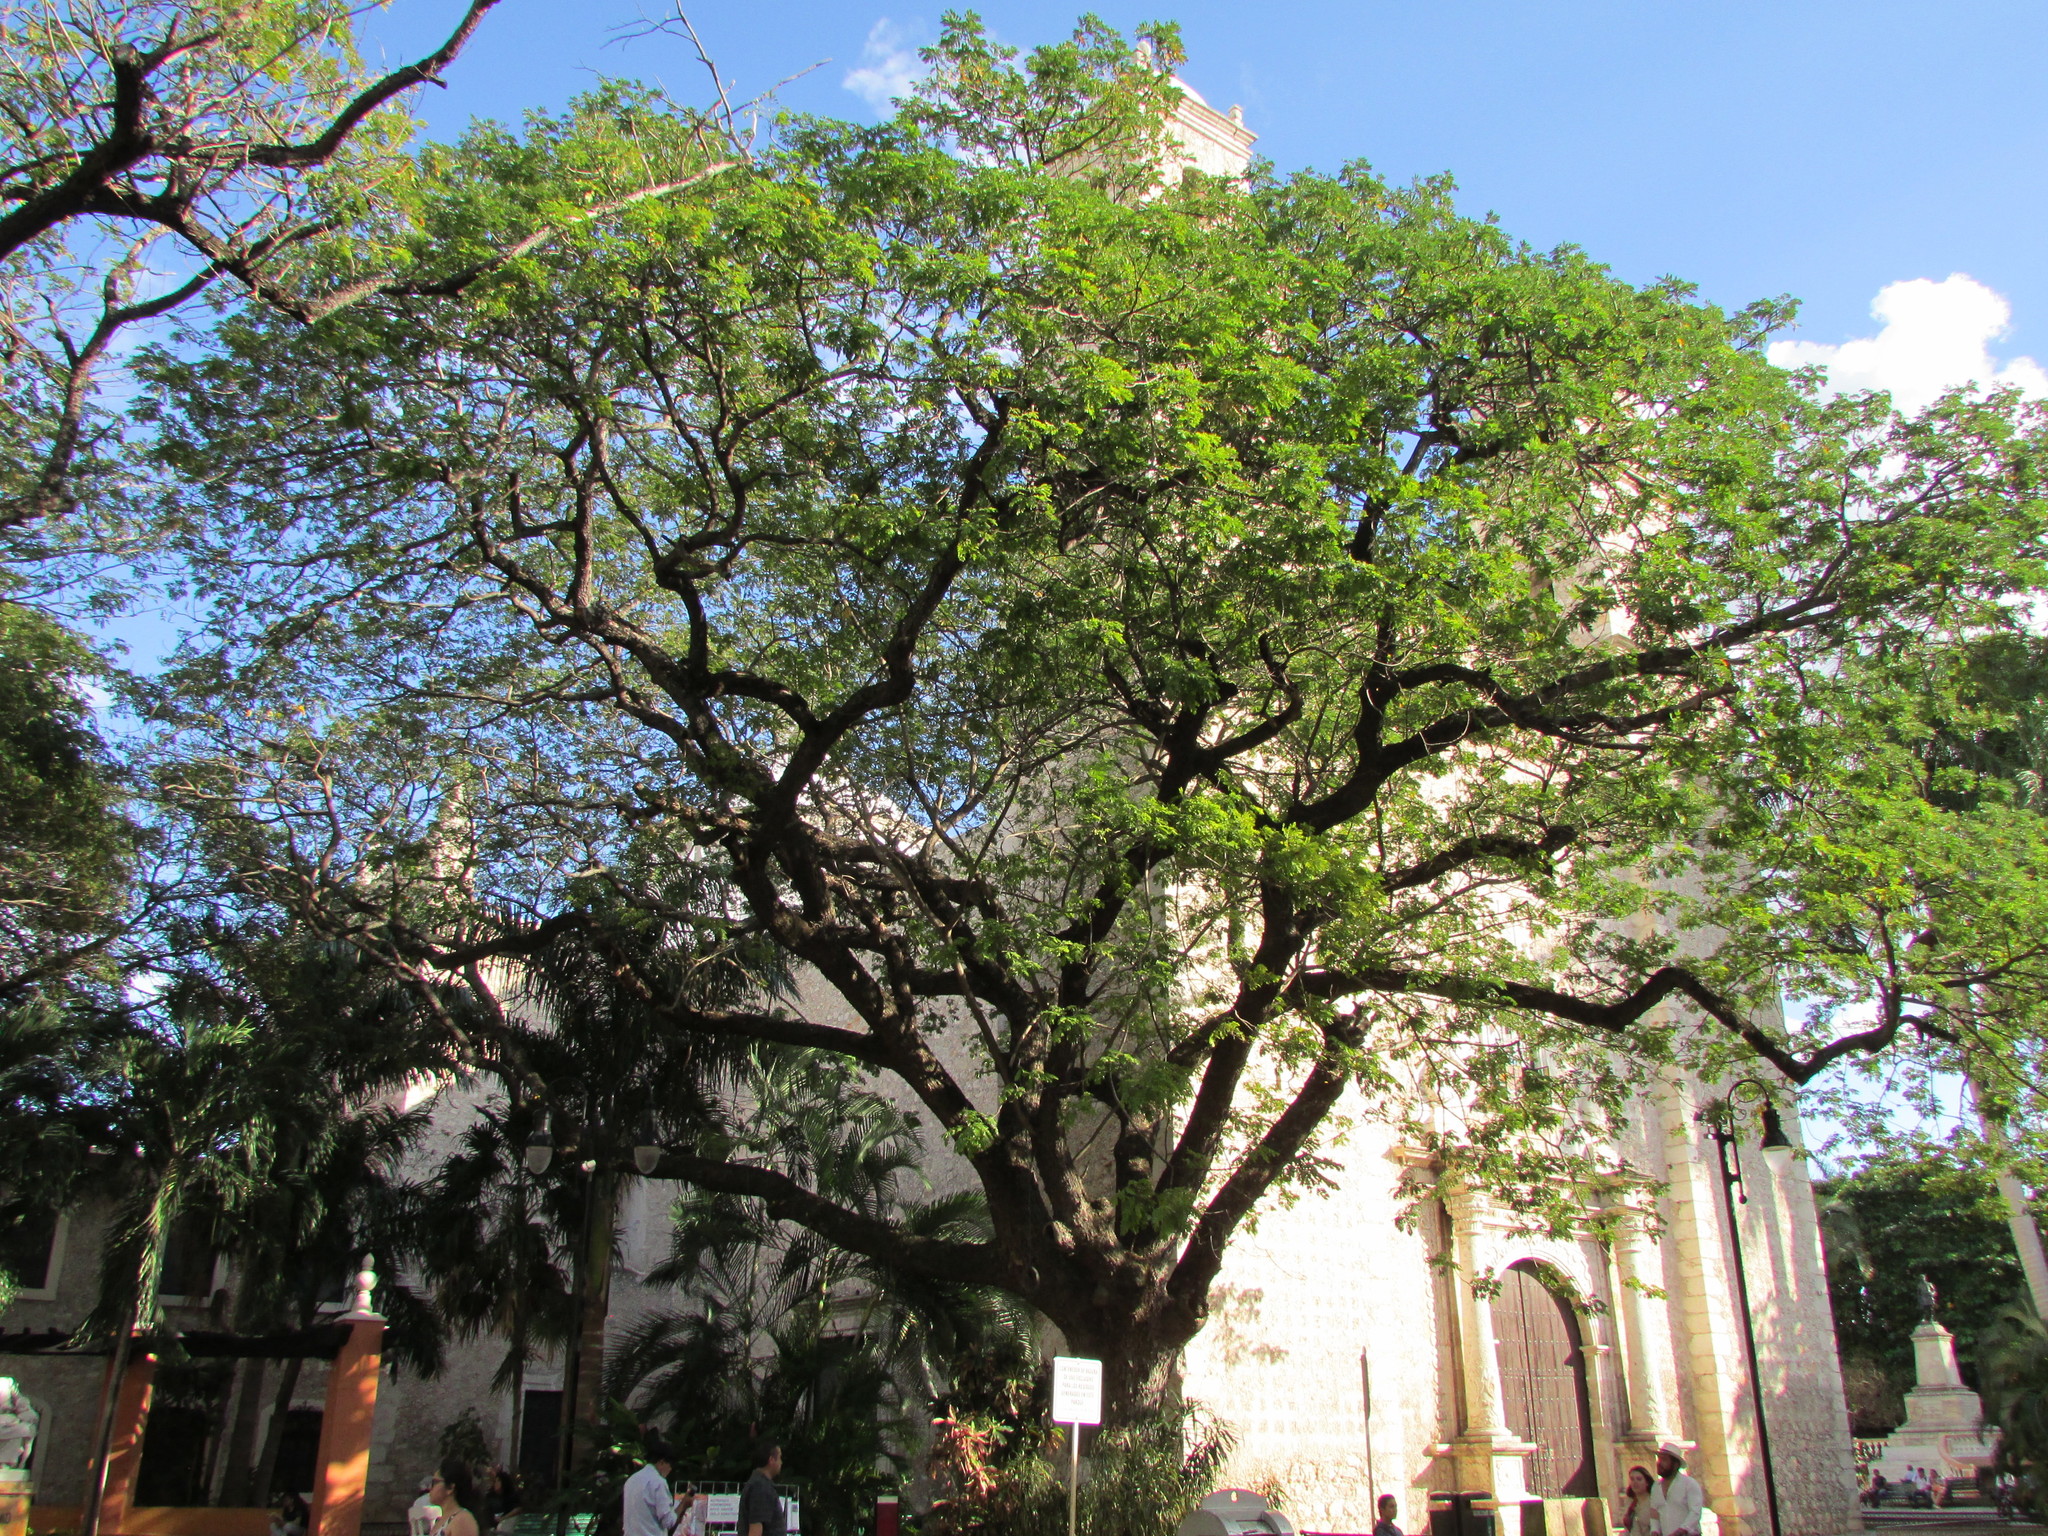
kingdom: Plantae
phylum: Tracheophyta
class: Magnoliopsida
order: Fabales
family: Fabaceae
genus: Samanea
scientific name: Samanea saman
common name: Raintree
